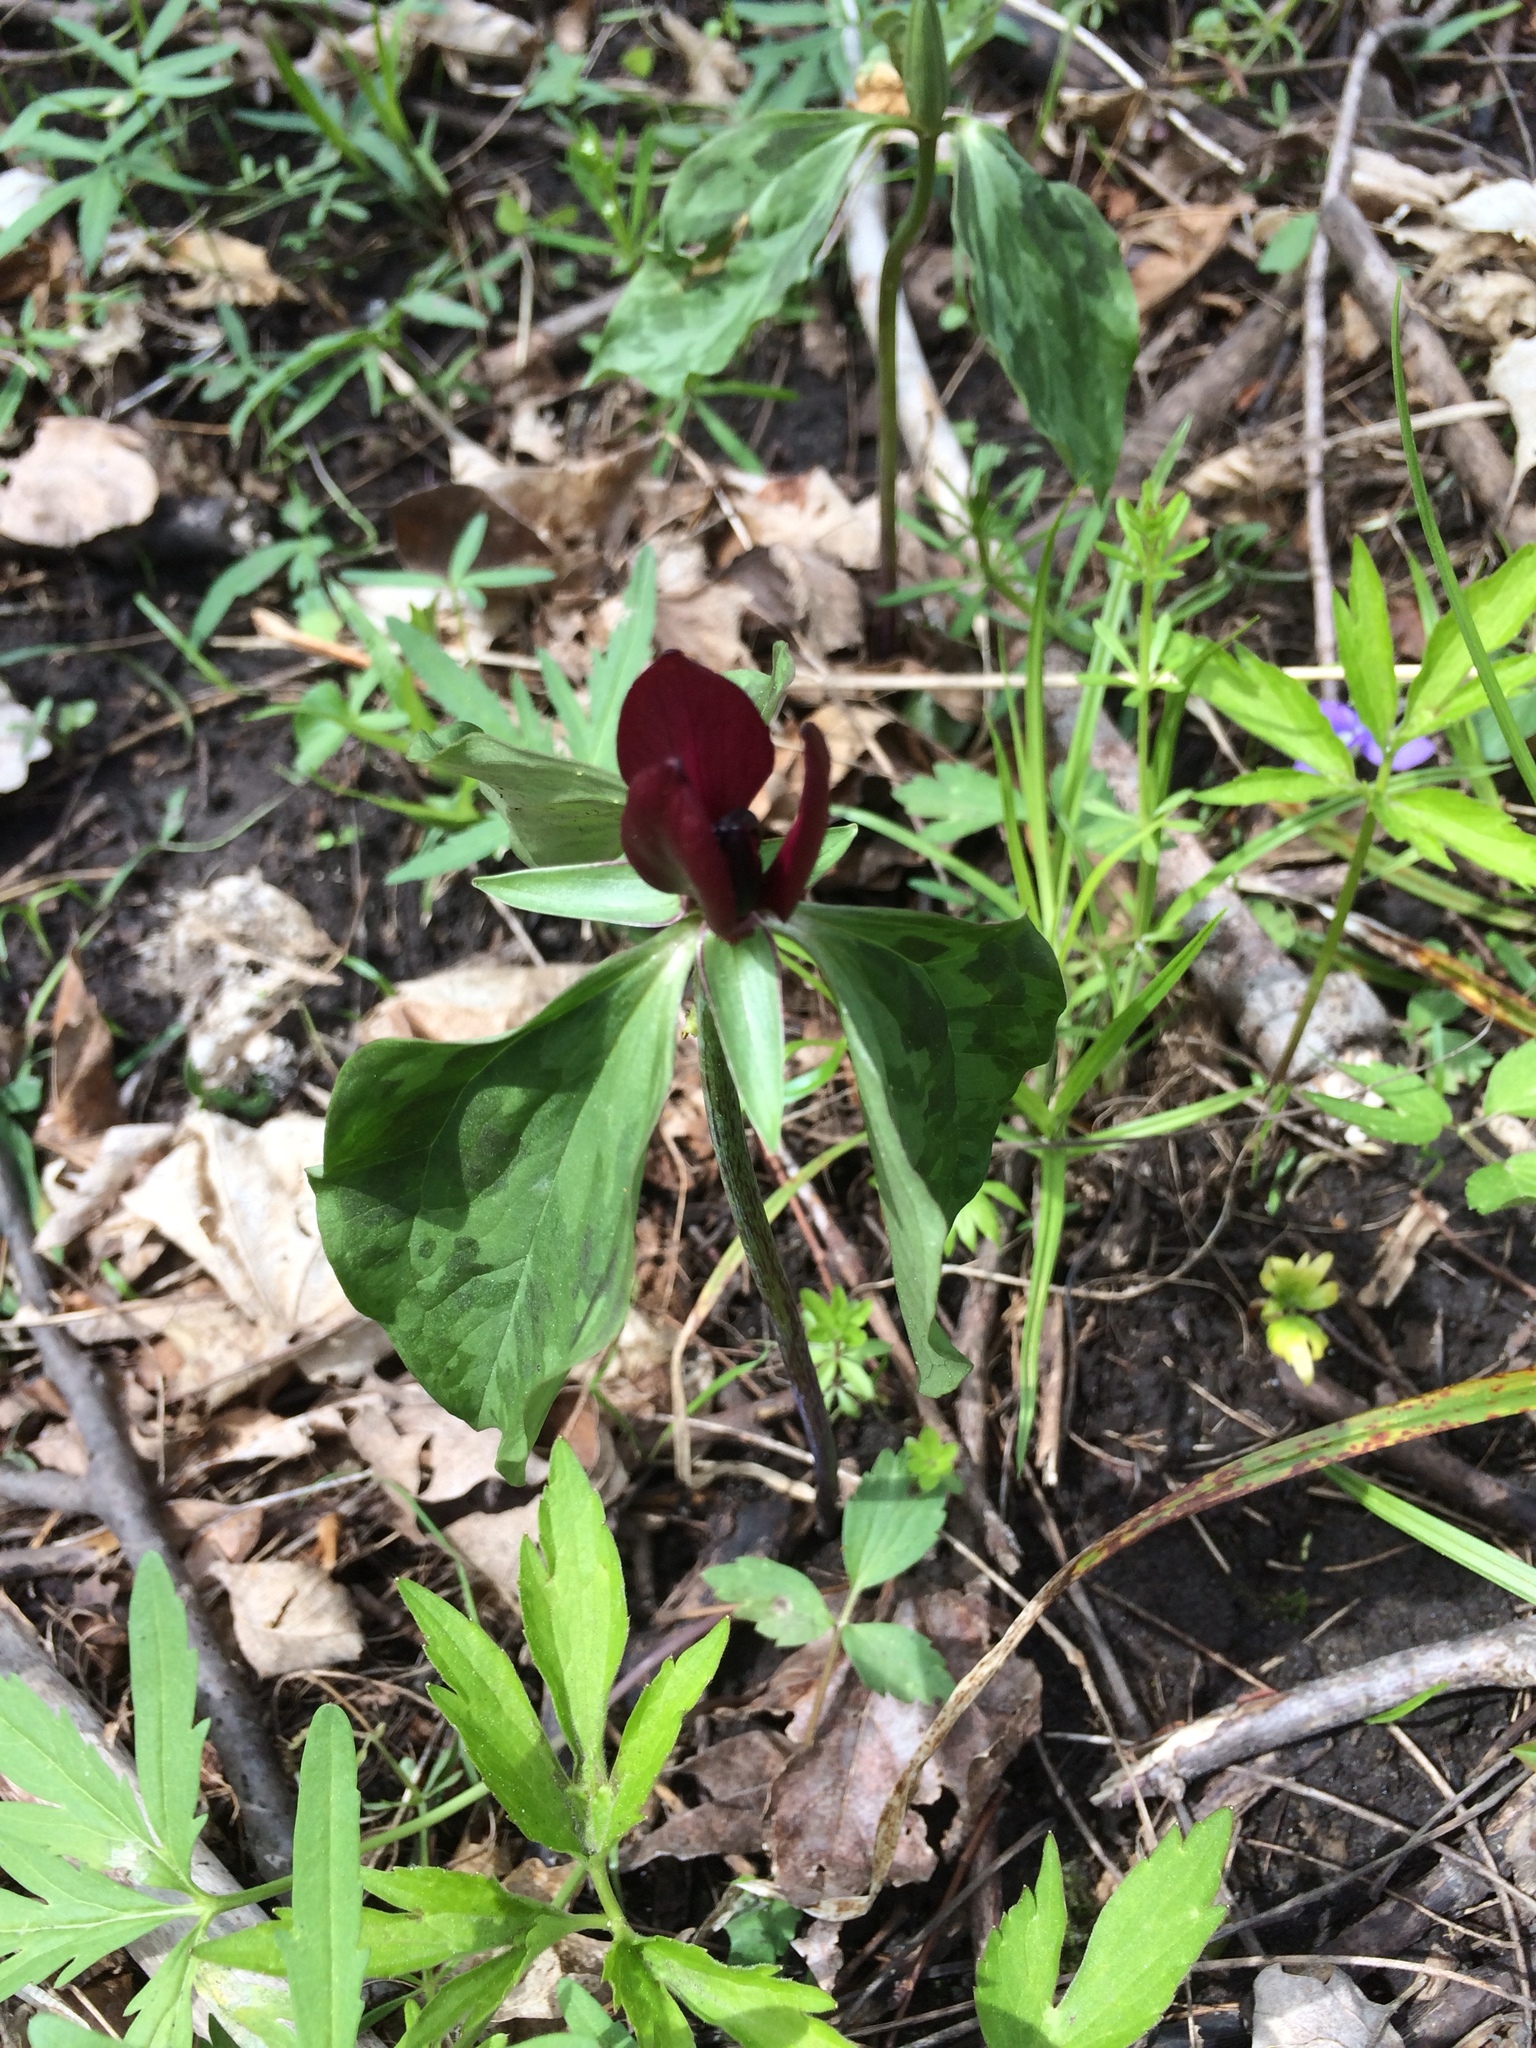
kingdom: Plantae
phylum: Tracheophyta
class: Liliopsida
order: Liliales
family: Melanthiaceae
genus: Trillium
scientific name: Trillium recurvatum
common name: Bloody butcher
